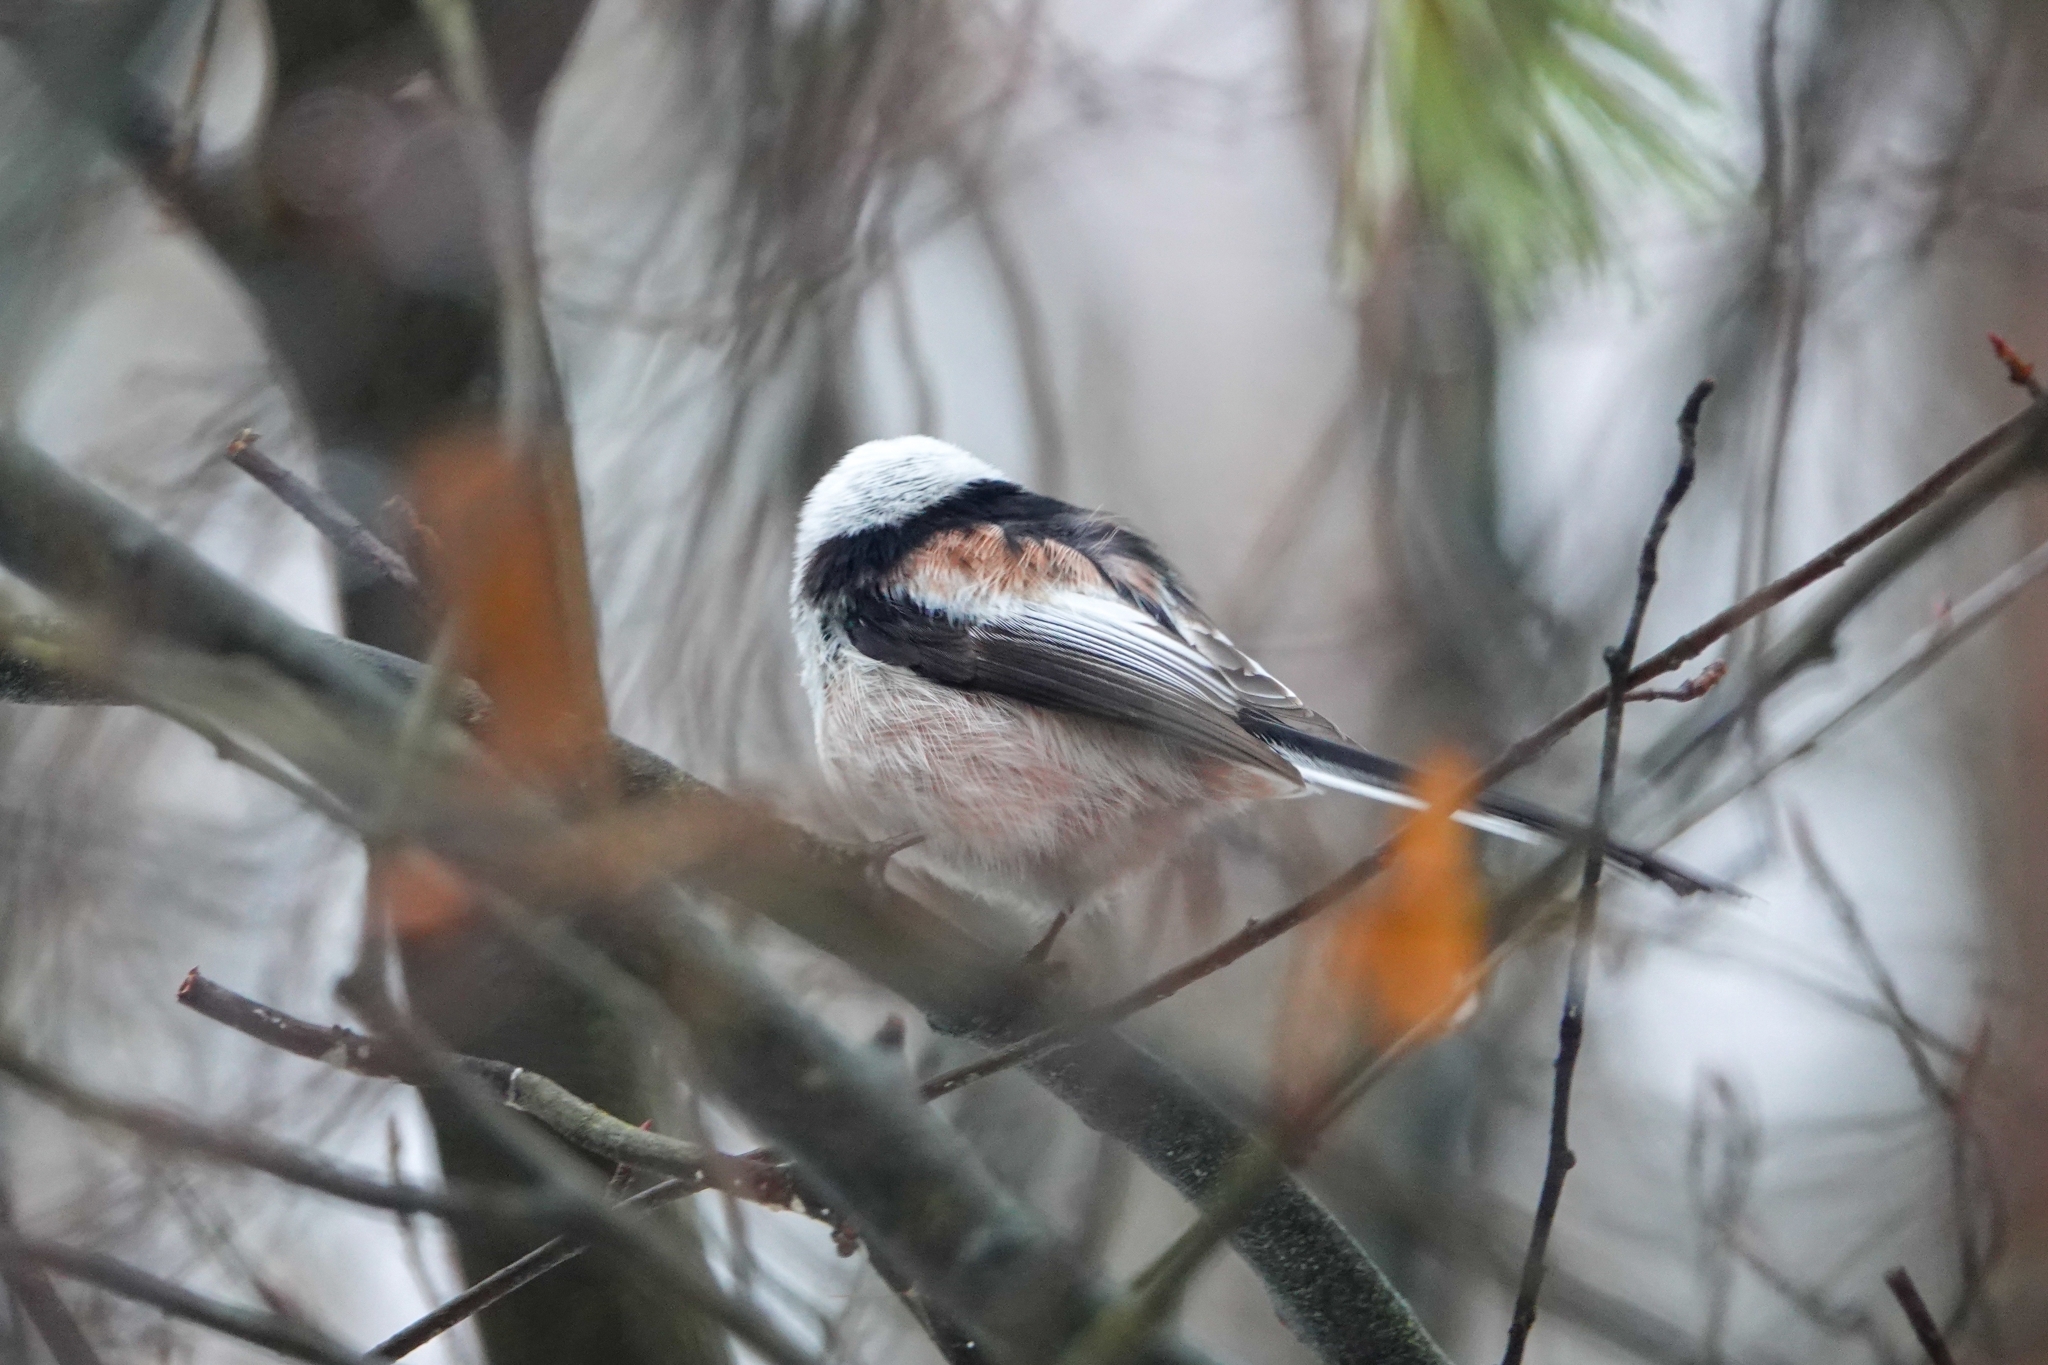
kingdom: Animalia
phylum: Chordata
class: Aves
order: Passeriformes
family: Aegithalidae
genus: Aegithalos
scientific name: Aegithalos caudatus
